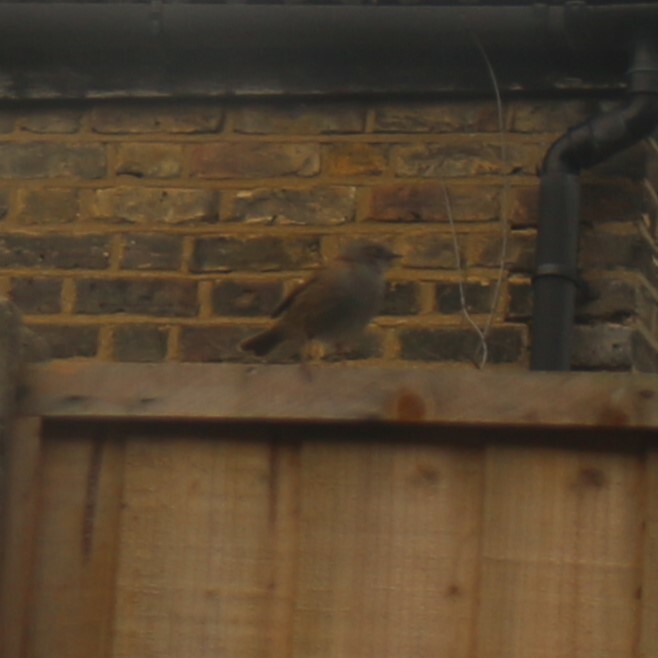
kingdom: Animalia
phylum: Chordata
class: Aves
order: Passeriformes
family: Prunellidae
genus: Prunella
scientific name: Prunella modularis
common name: Dunnock
